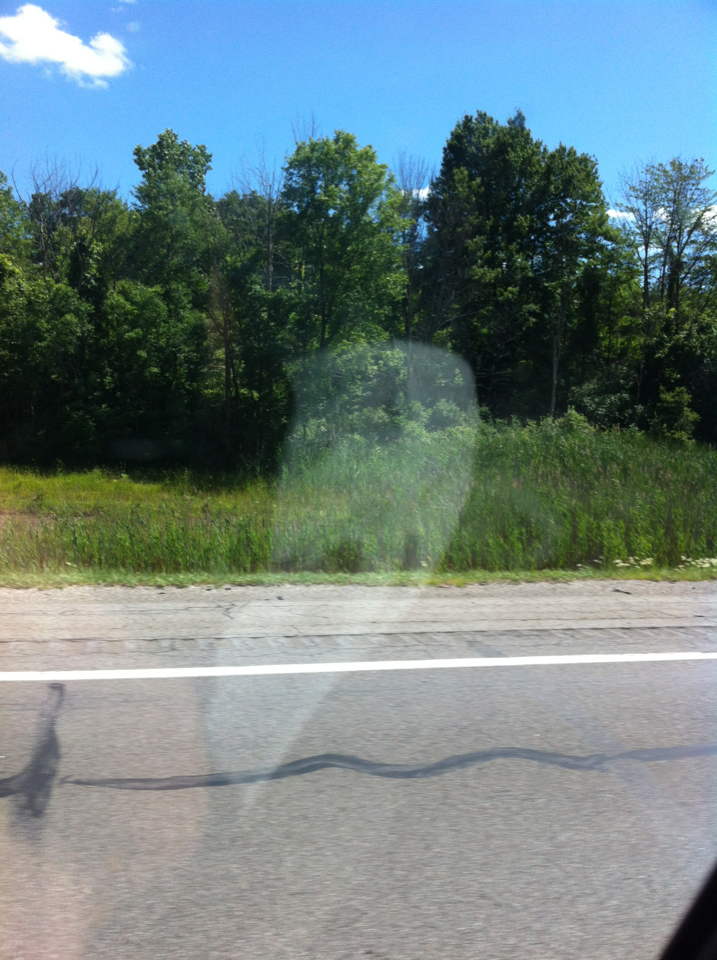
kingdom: Plantae
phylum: Tracheophyta
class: Liliopsida
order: Poales
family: Poaceae
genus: Phragmites
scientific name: Phragmites australis
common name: Common reed
